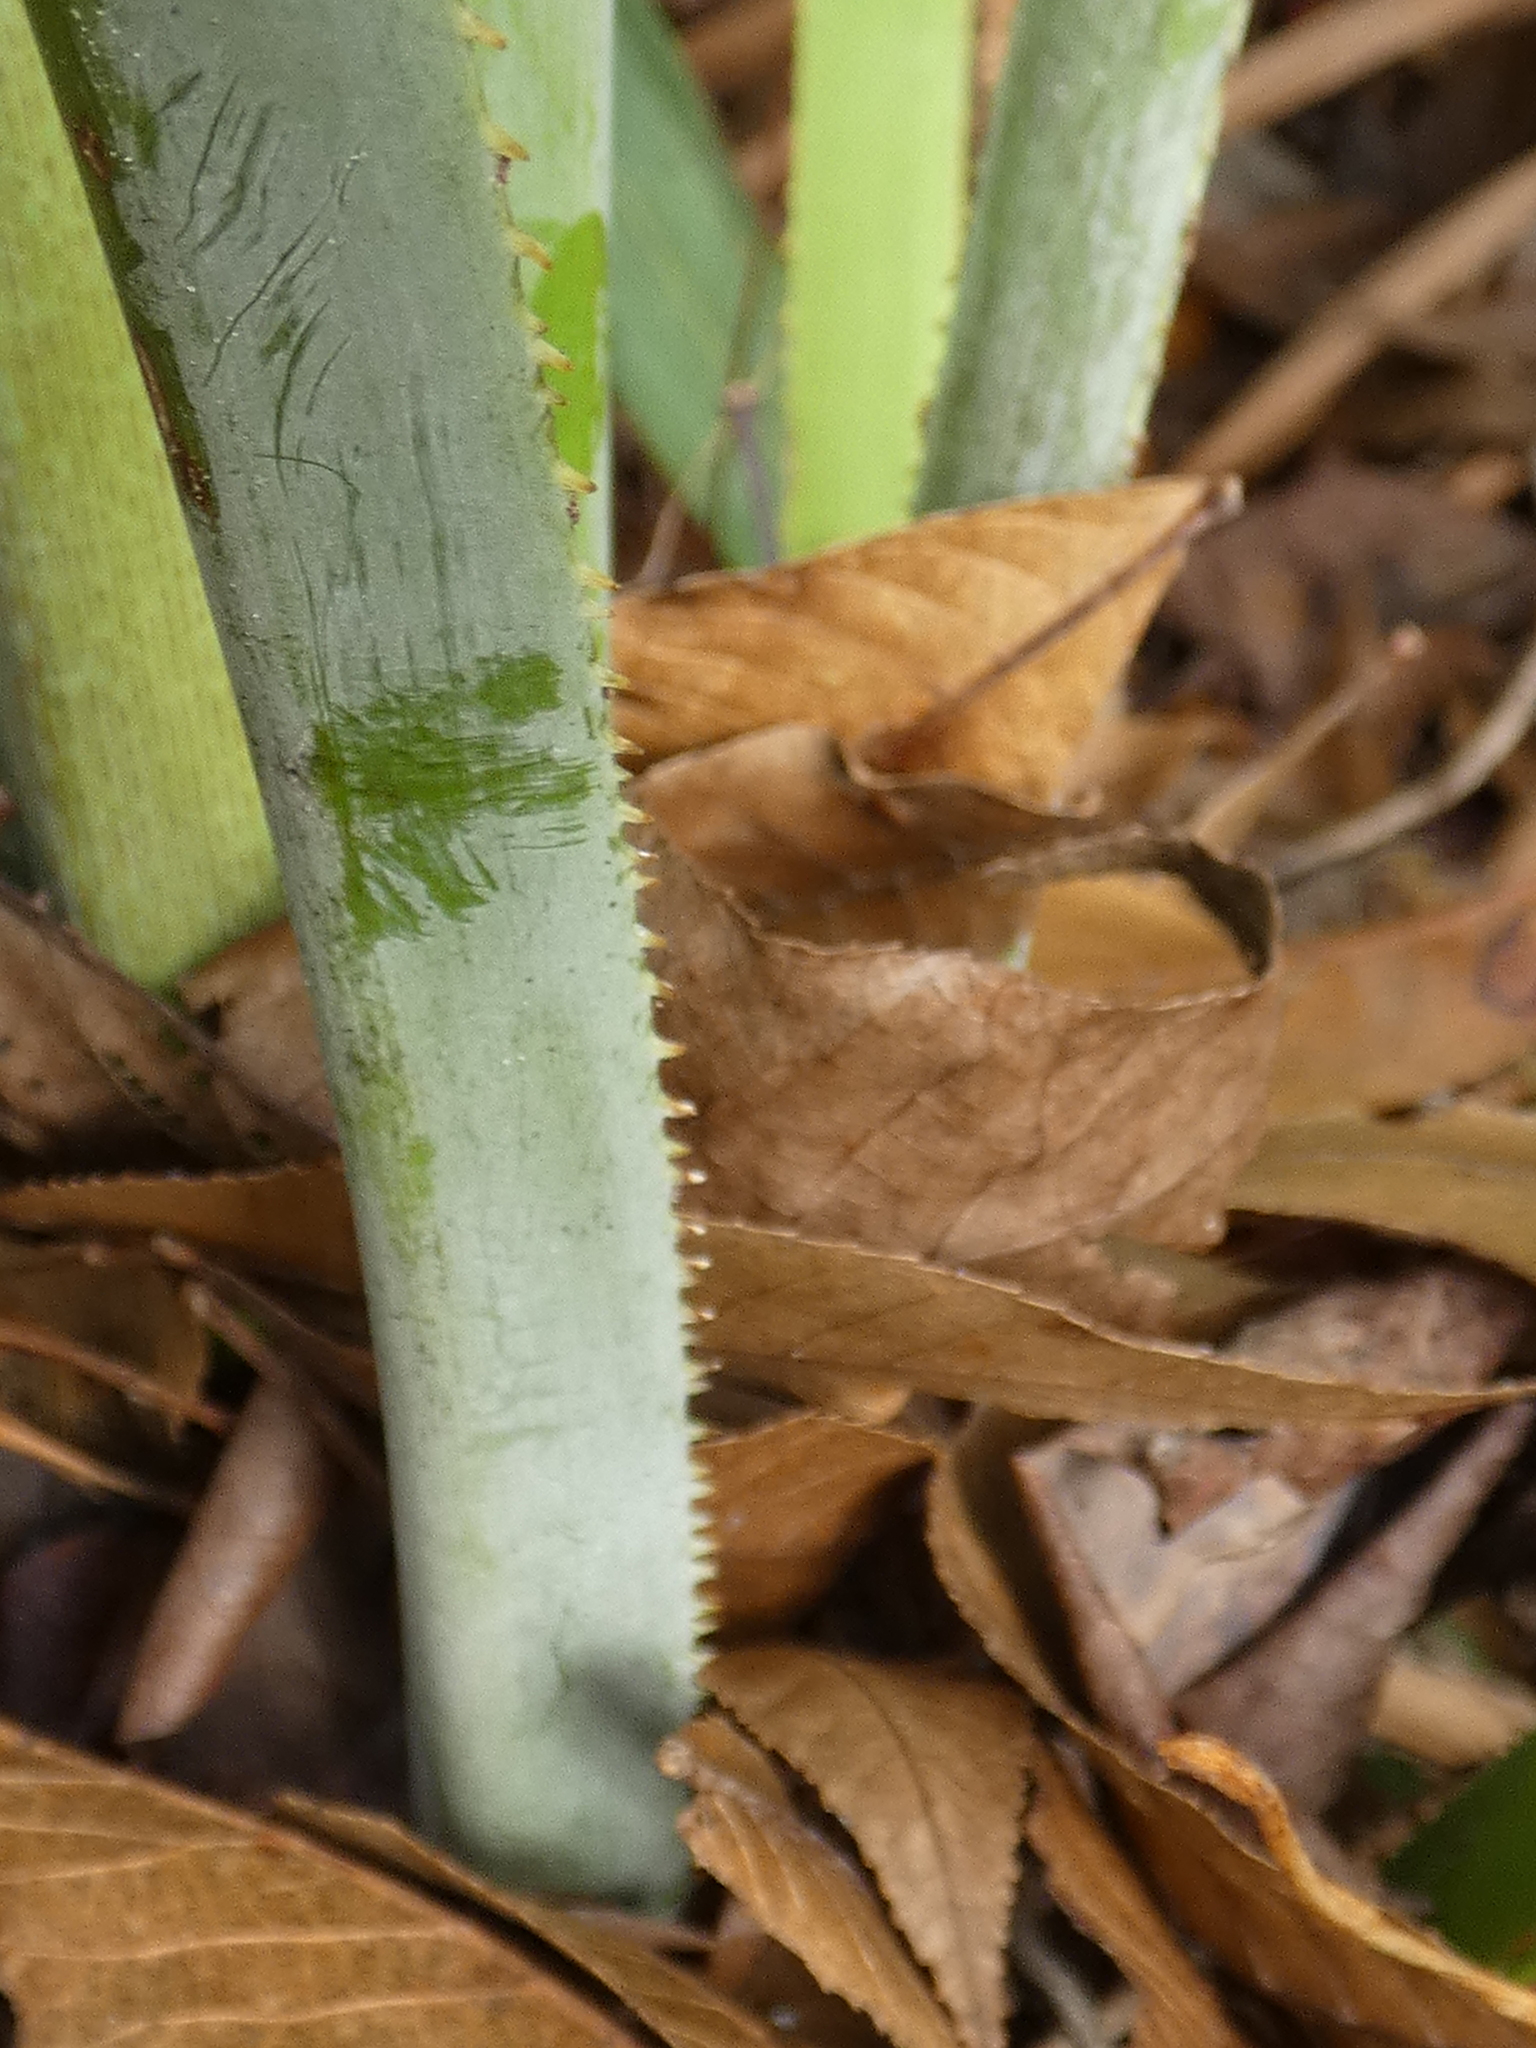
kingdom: Plantae
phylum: Tracheophyta
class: Liliopsida
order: Arecales
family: Arecaceae
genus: Serenoa
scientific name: Serenoa repens
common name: Saw-palmetto
